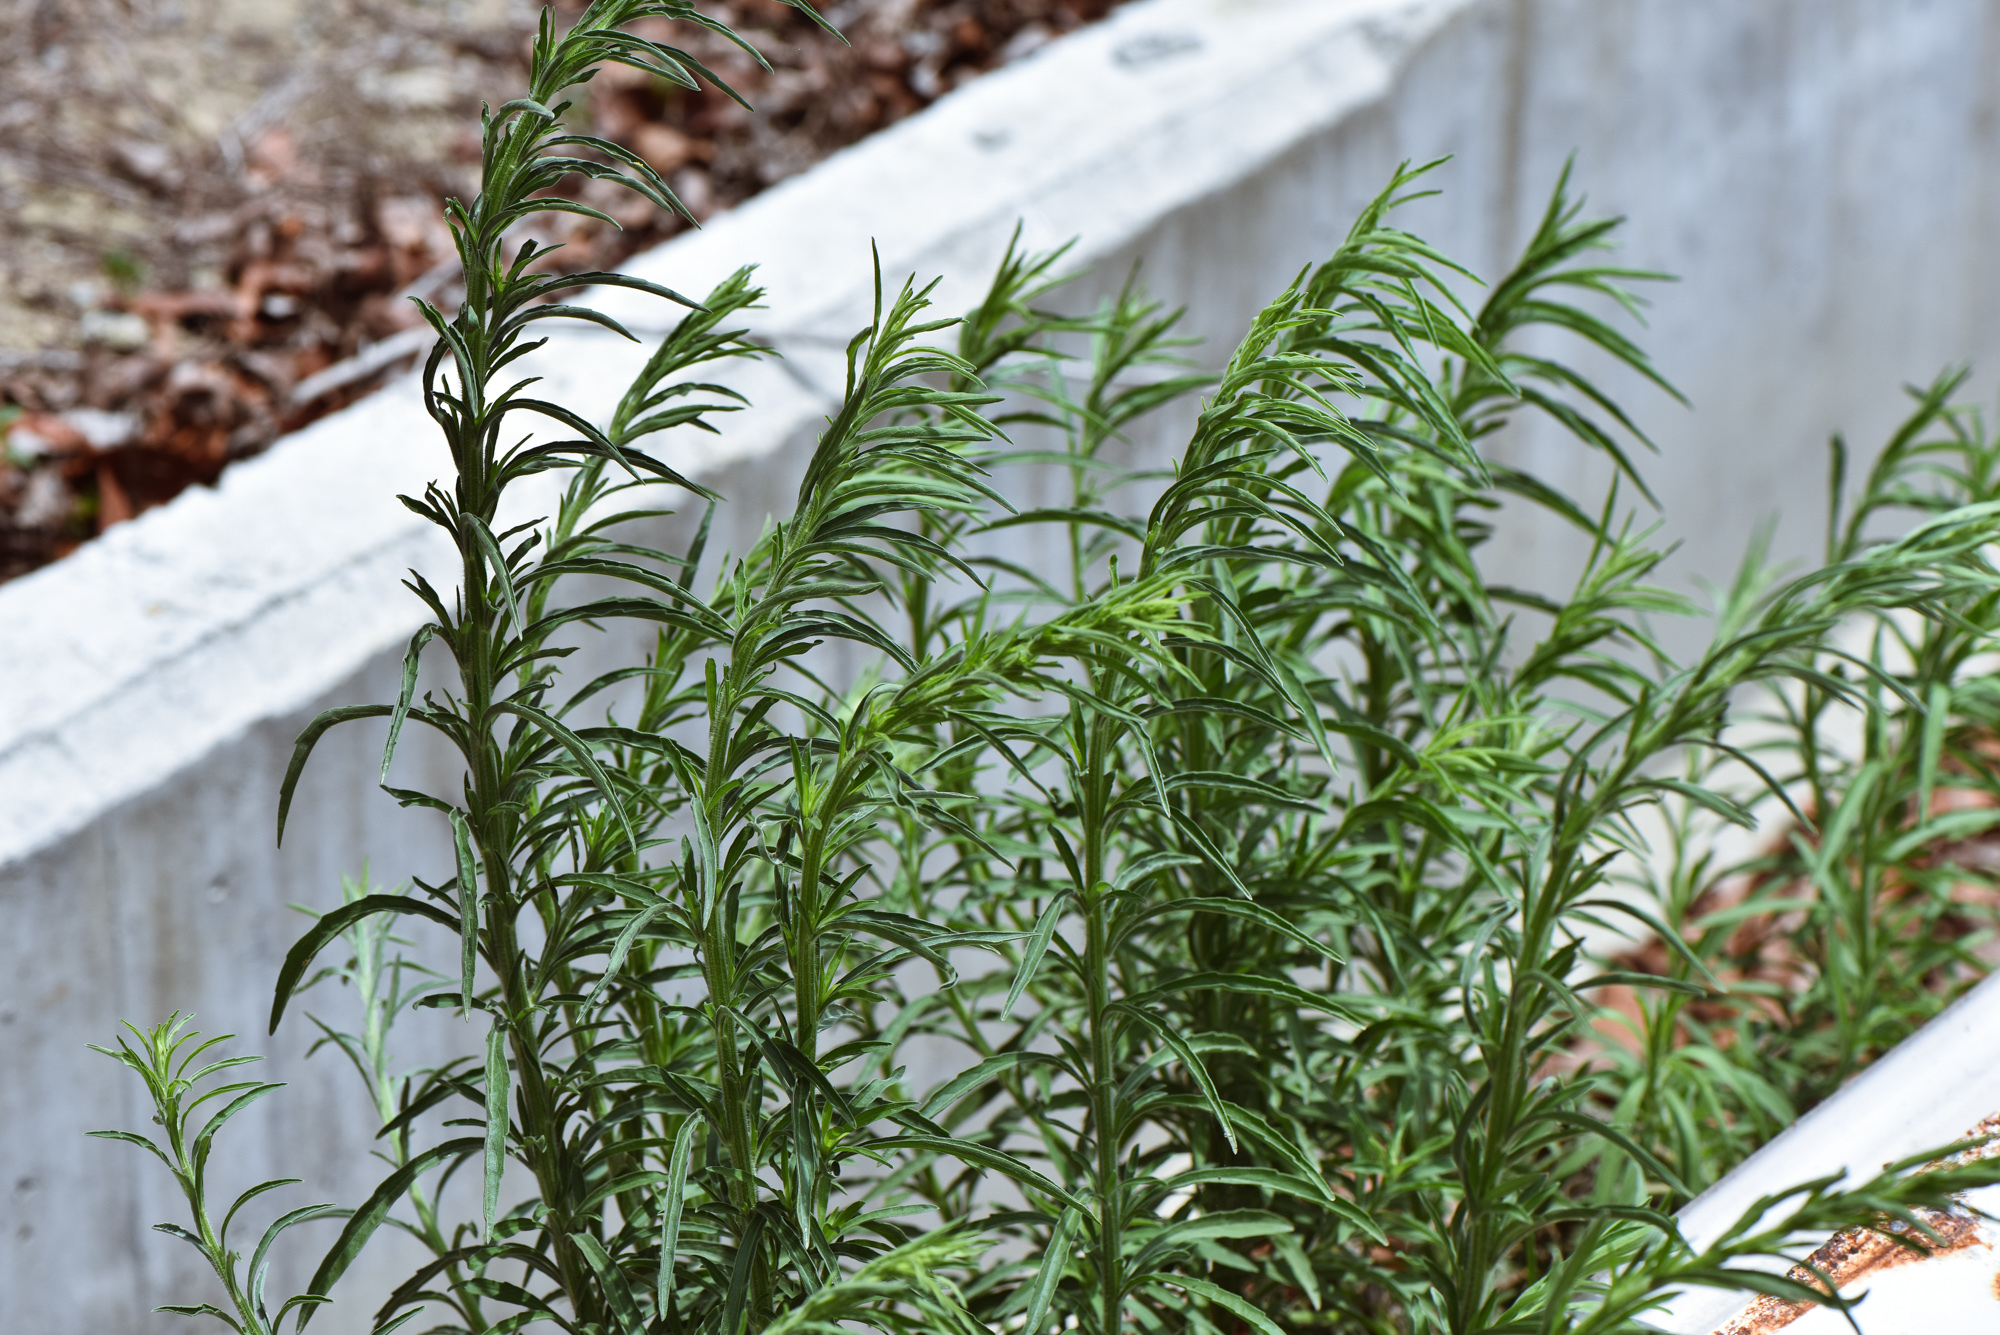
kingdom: Plantae
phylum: Tracheophyta
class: Magnoliopsida
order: Asterales
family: Asteraceae
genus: Erigeron
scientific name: Erigeron sumatrensis
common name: Daisy
